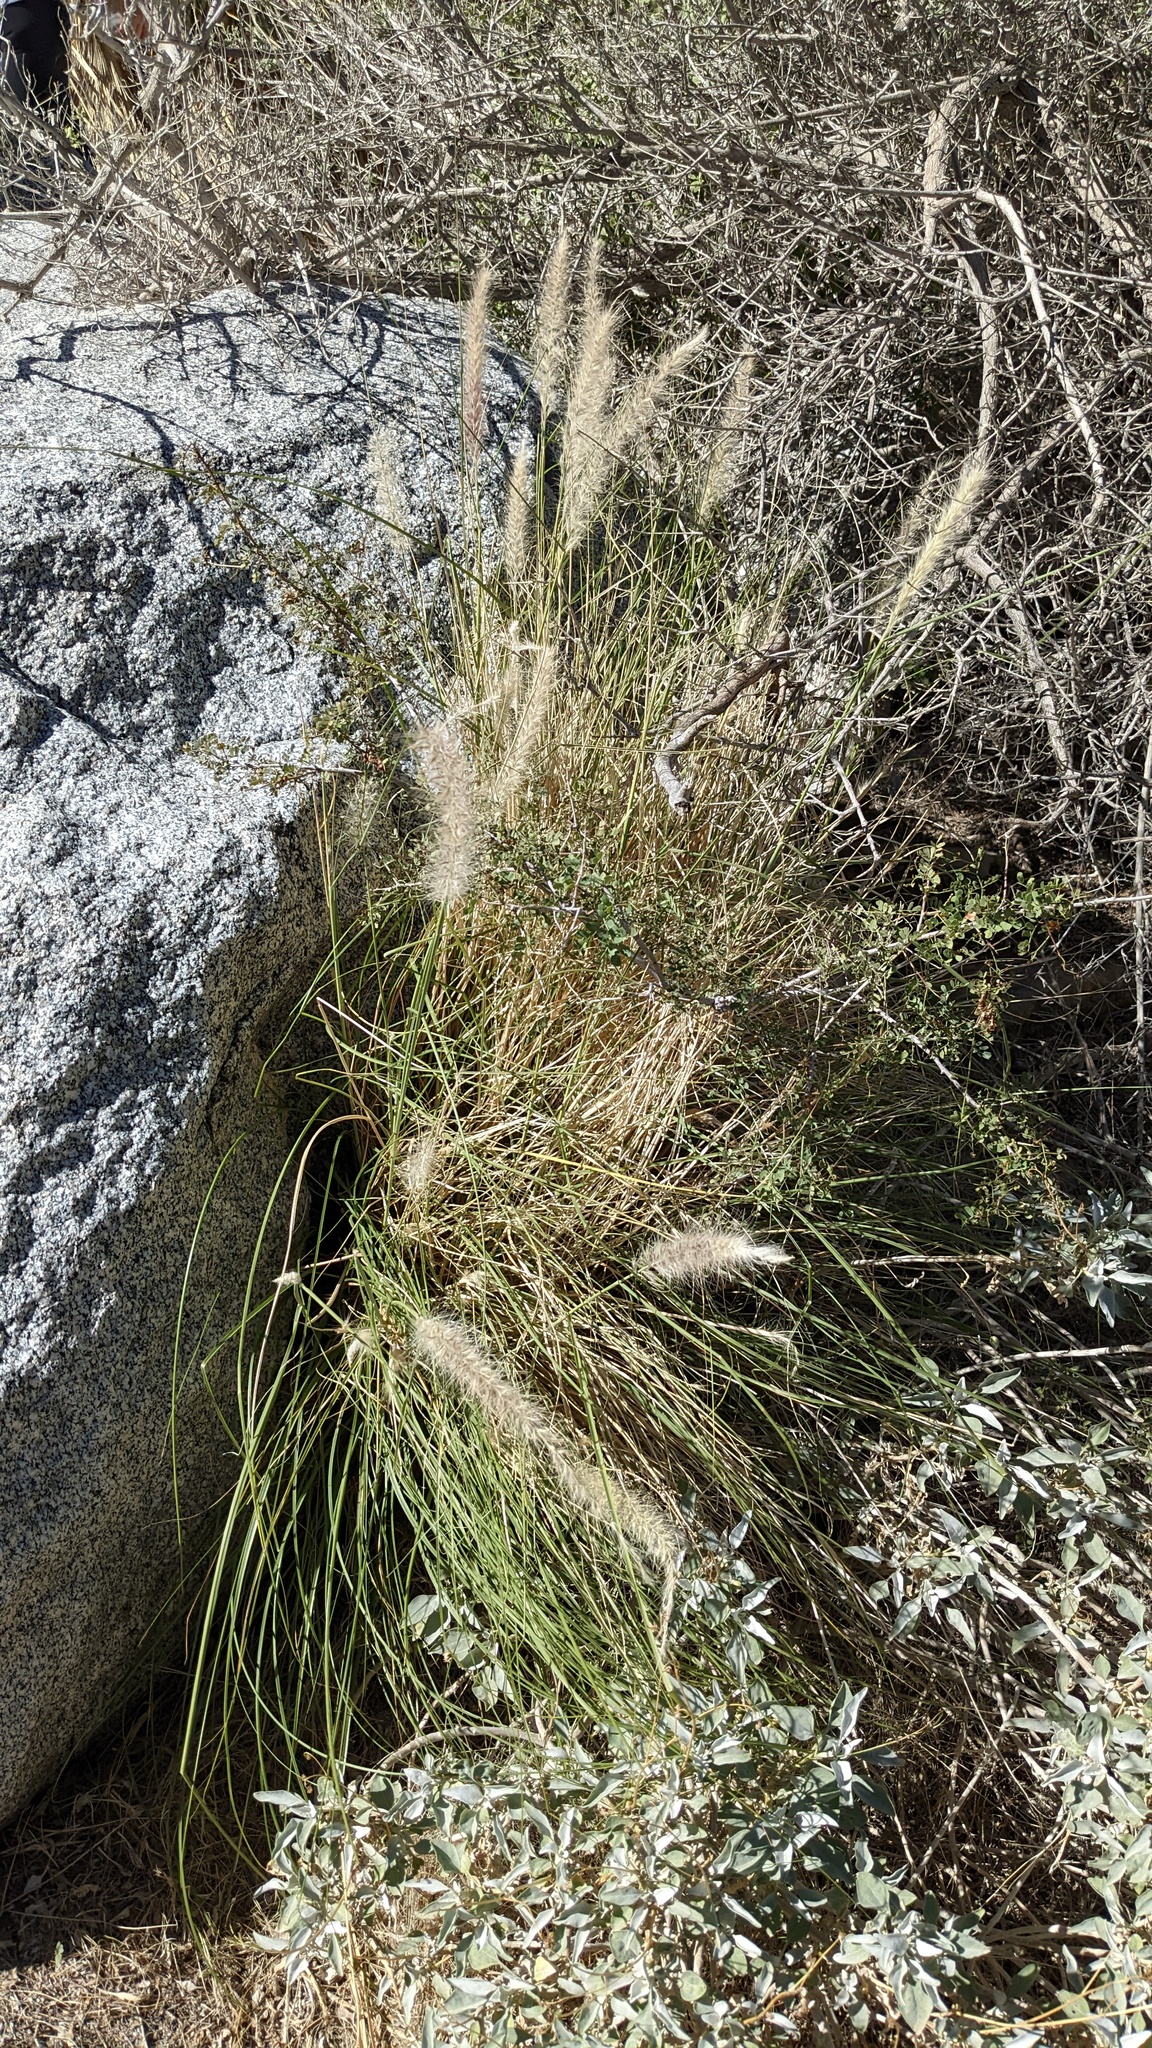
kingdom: Plantae
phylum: Tracheophyta
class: Liliopsida
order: Poales
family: Poaceae
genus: Cenchrus
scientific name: Cenchrus setaceus
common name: Crimson fountaingrass
